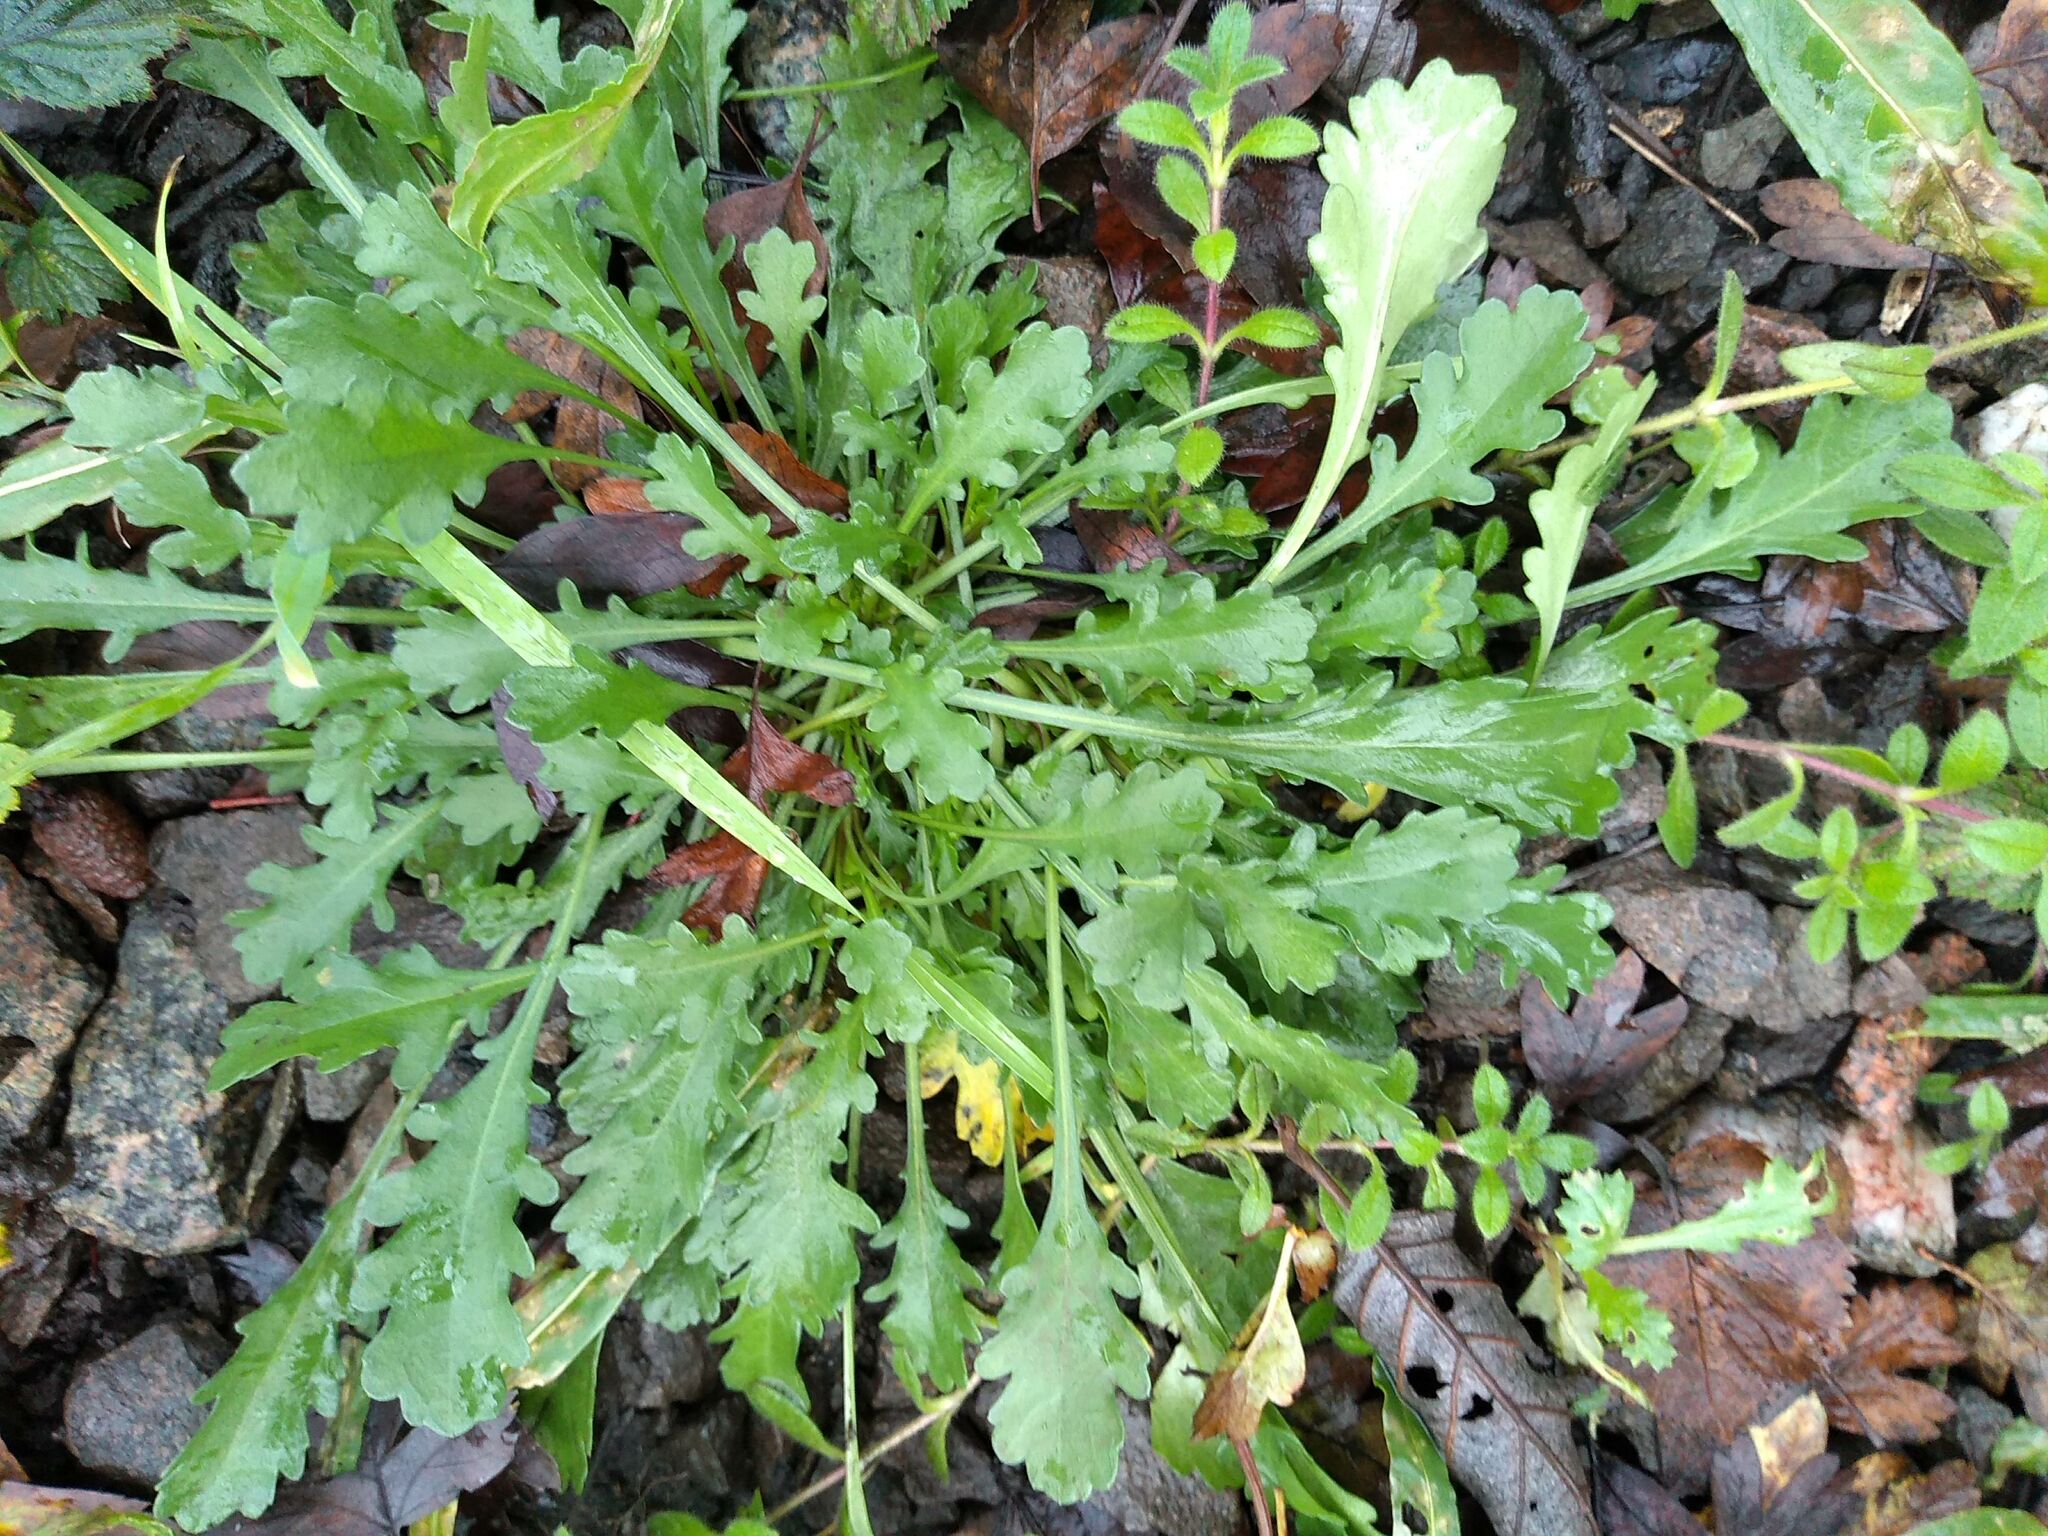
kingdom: Plantae
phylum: Tracheophyta
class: Magnoliopsida
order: Asterales
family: Asteraceae
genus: Leucanthemum
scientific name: Leucanthemum vulgare
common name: Oxeye daisy
